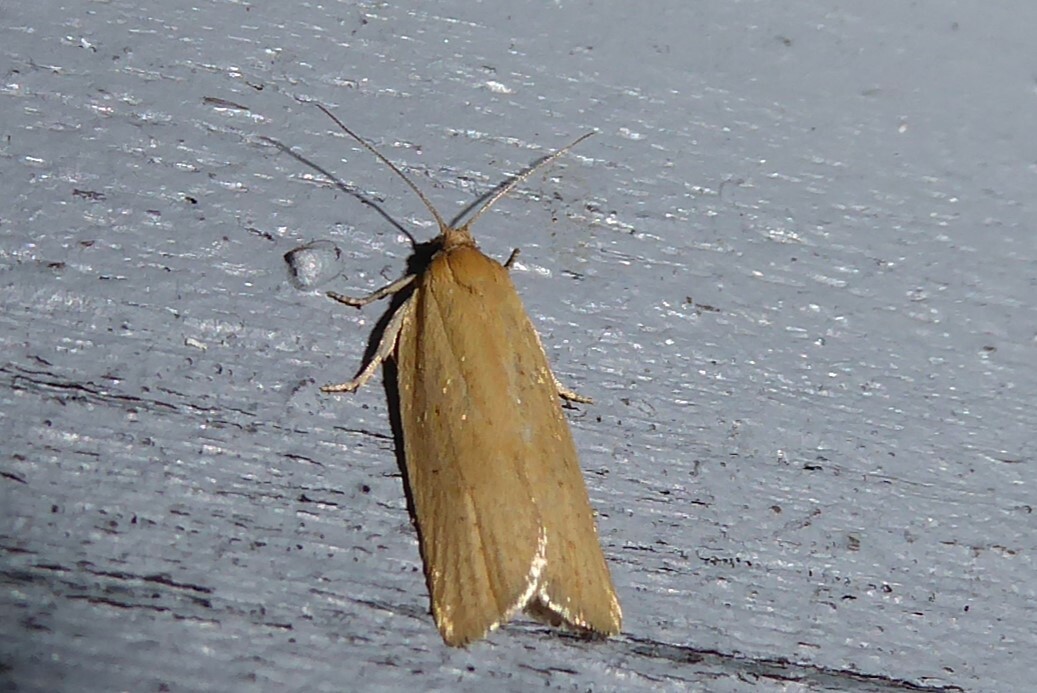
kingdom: Animalia
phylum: Arthropoda
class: Insecta
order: Lepidoptera
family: Tortricidae
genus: Clepsis
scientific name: Clepsis
